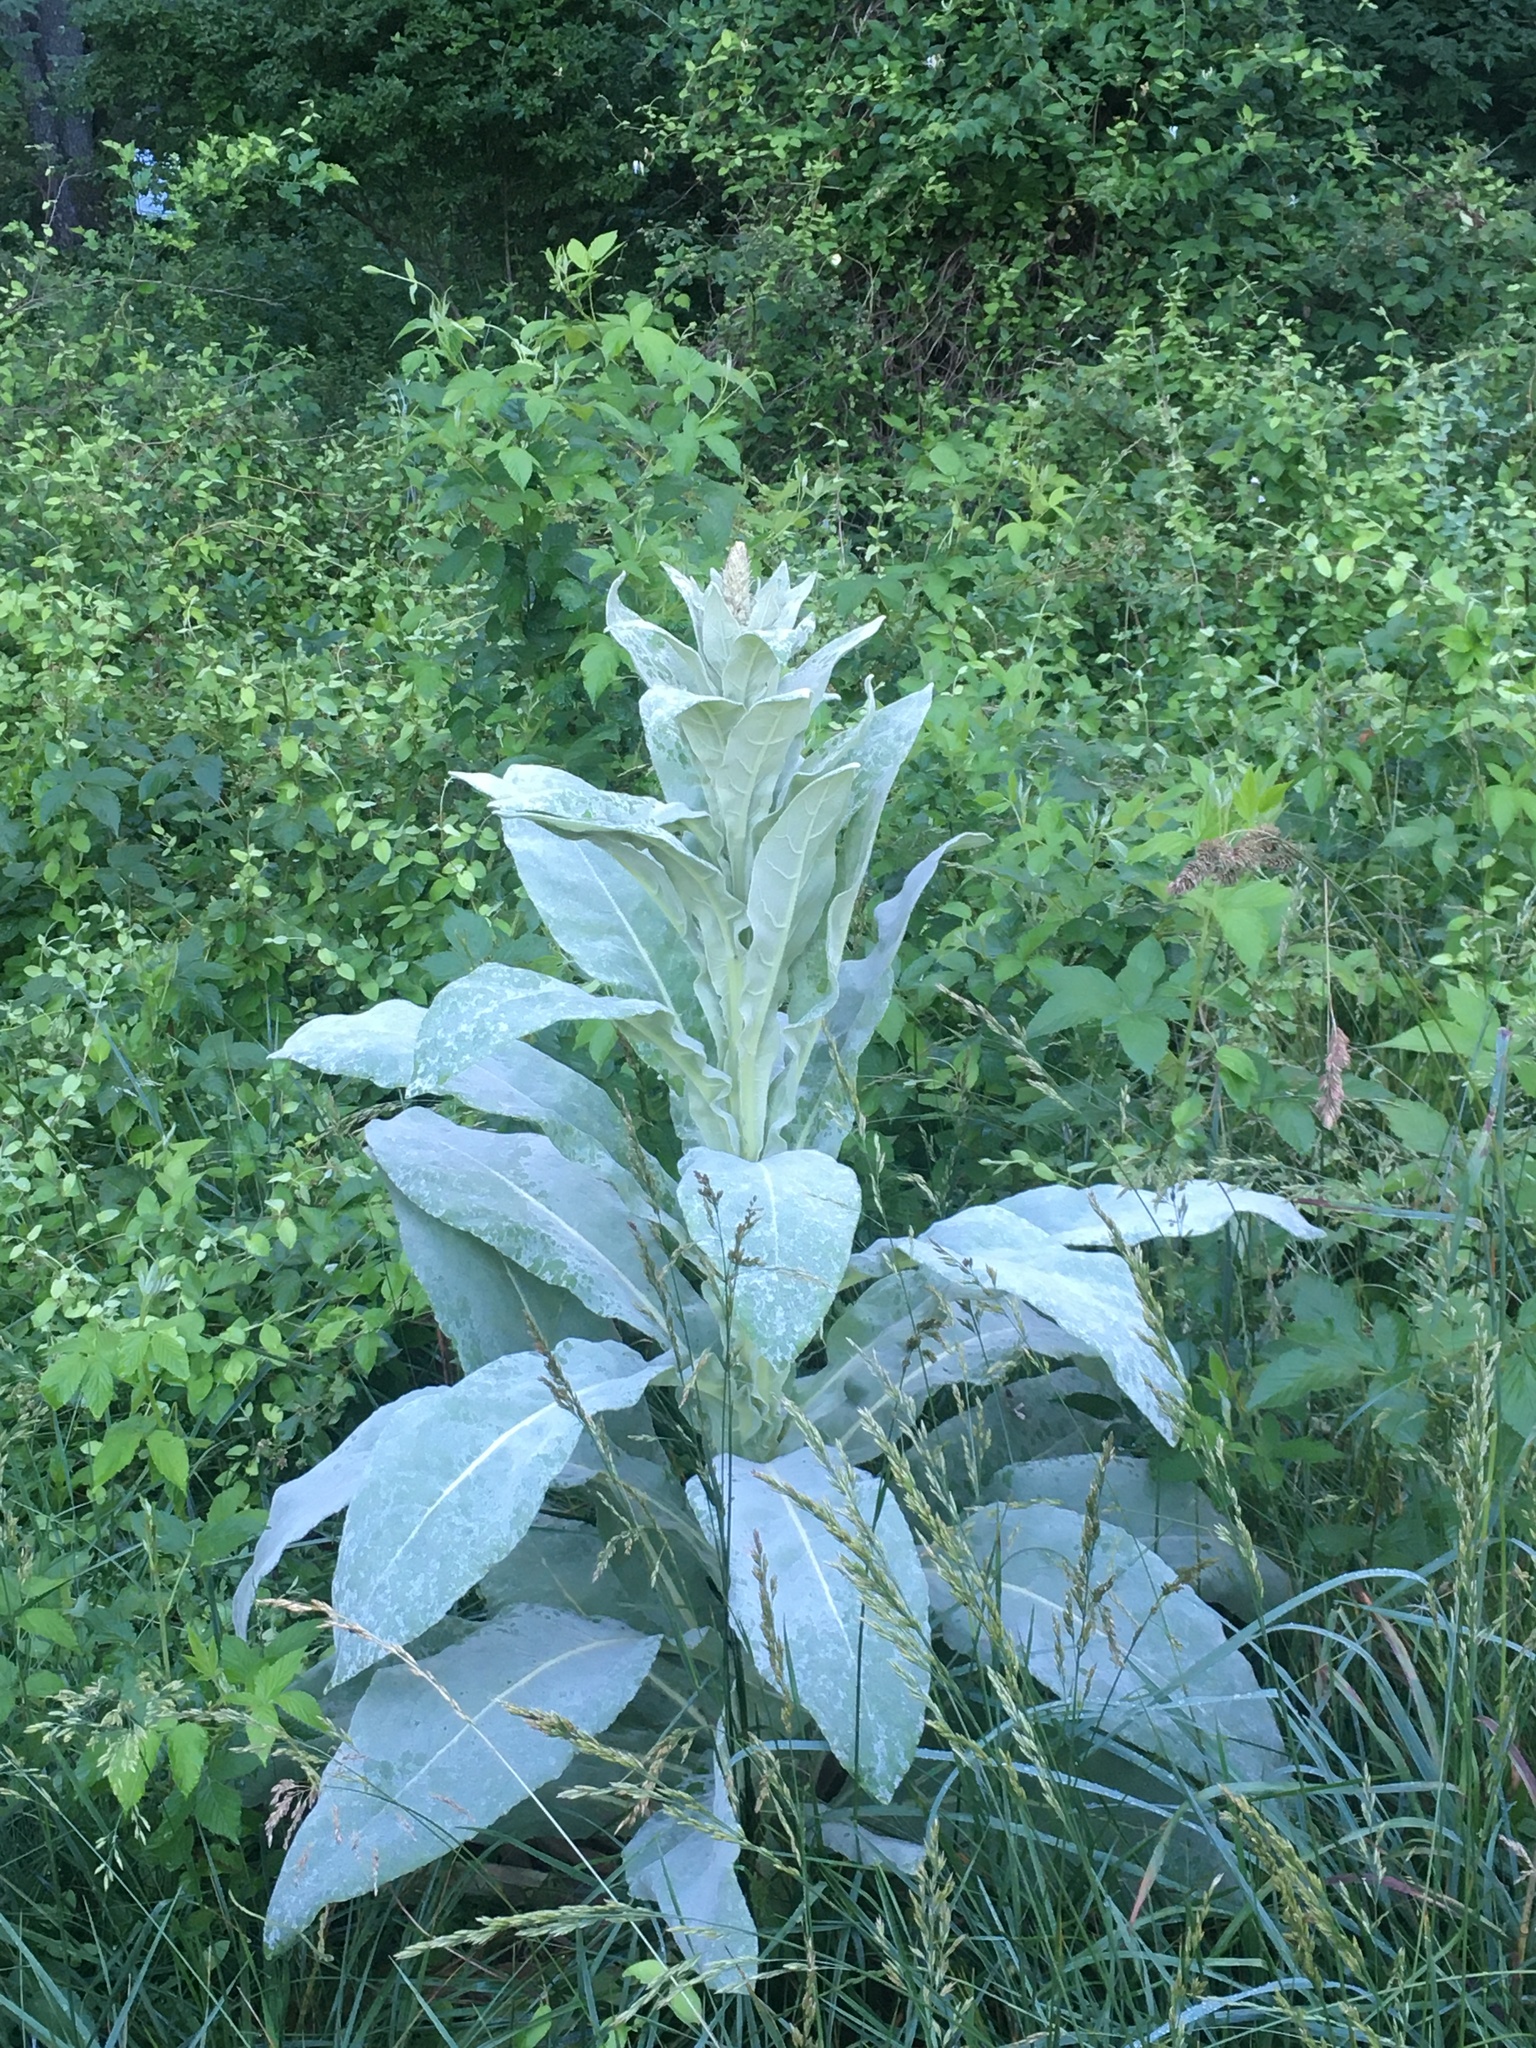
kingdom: Plantae
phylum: Tracheophyta
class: Magnoliopsida
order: Lamiales
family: Scrophulariaceae
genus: Verbascum
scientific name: Verbascum thapsus
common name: Common mullein
